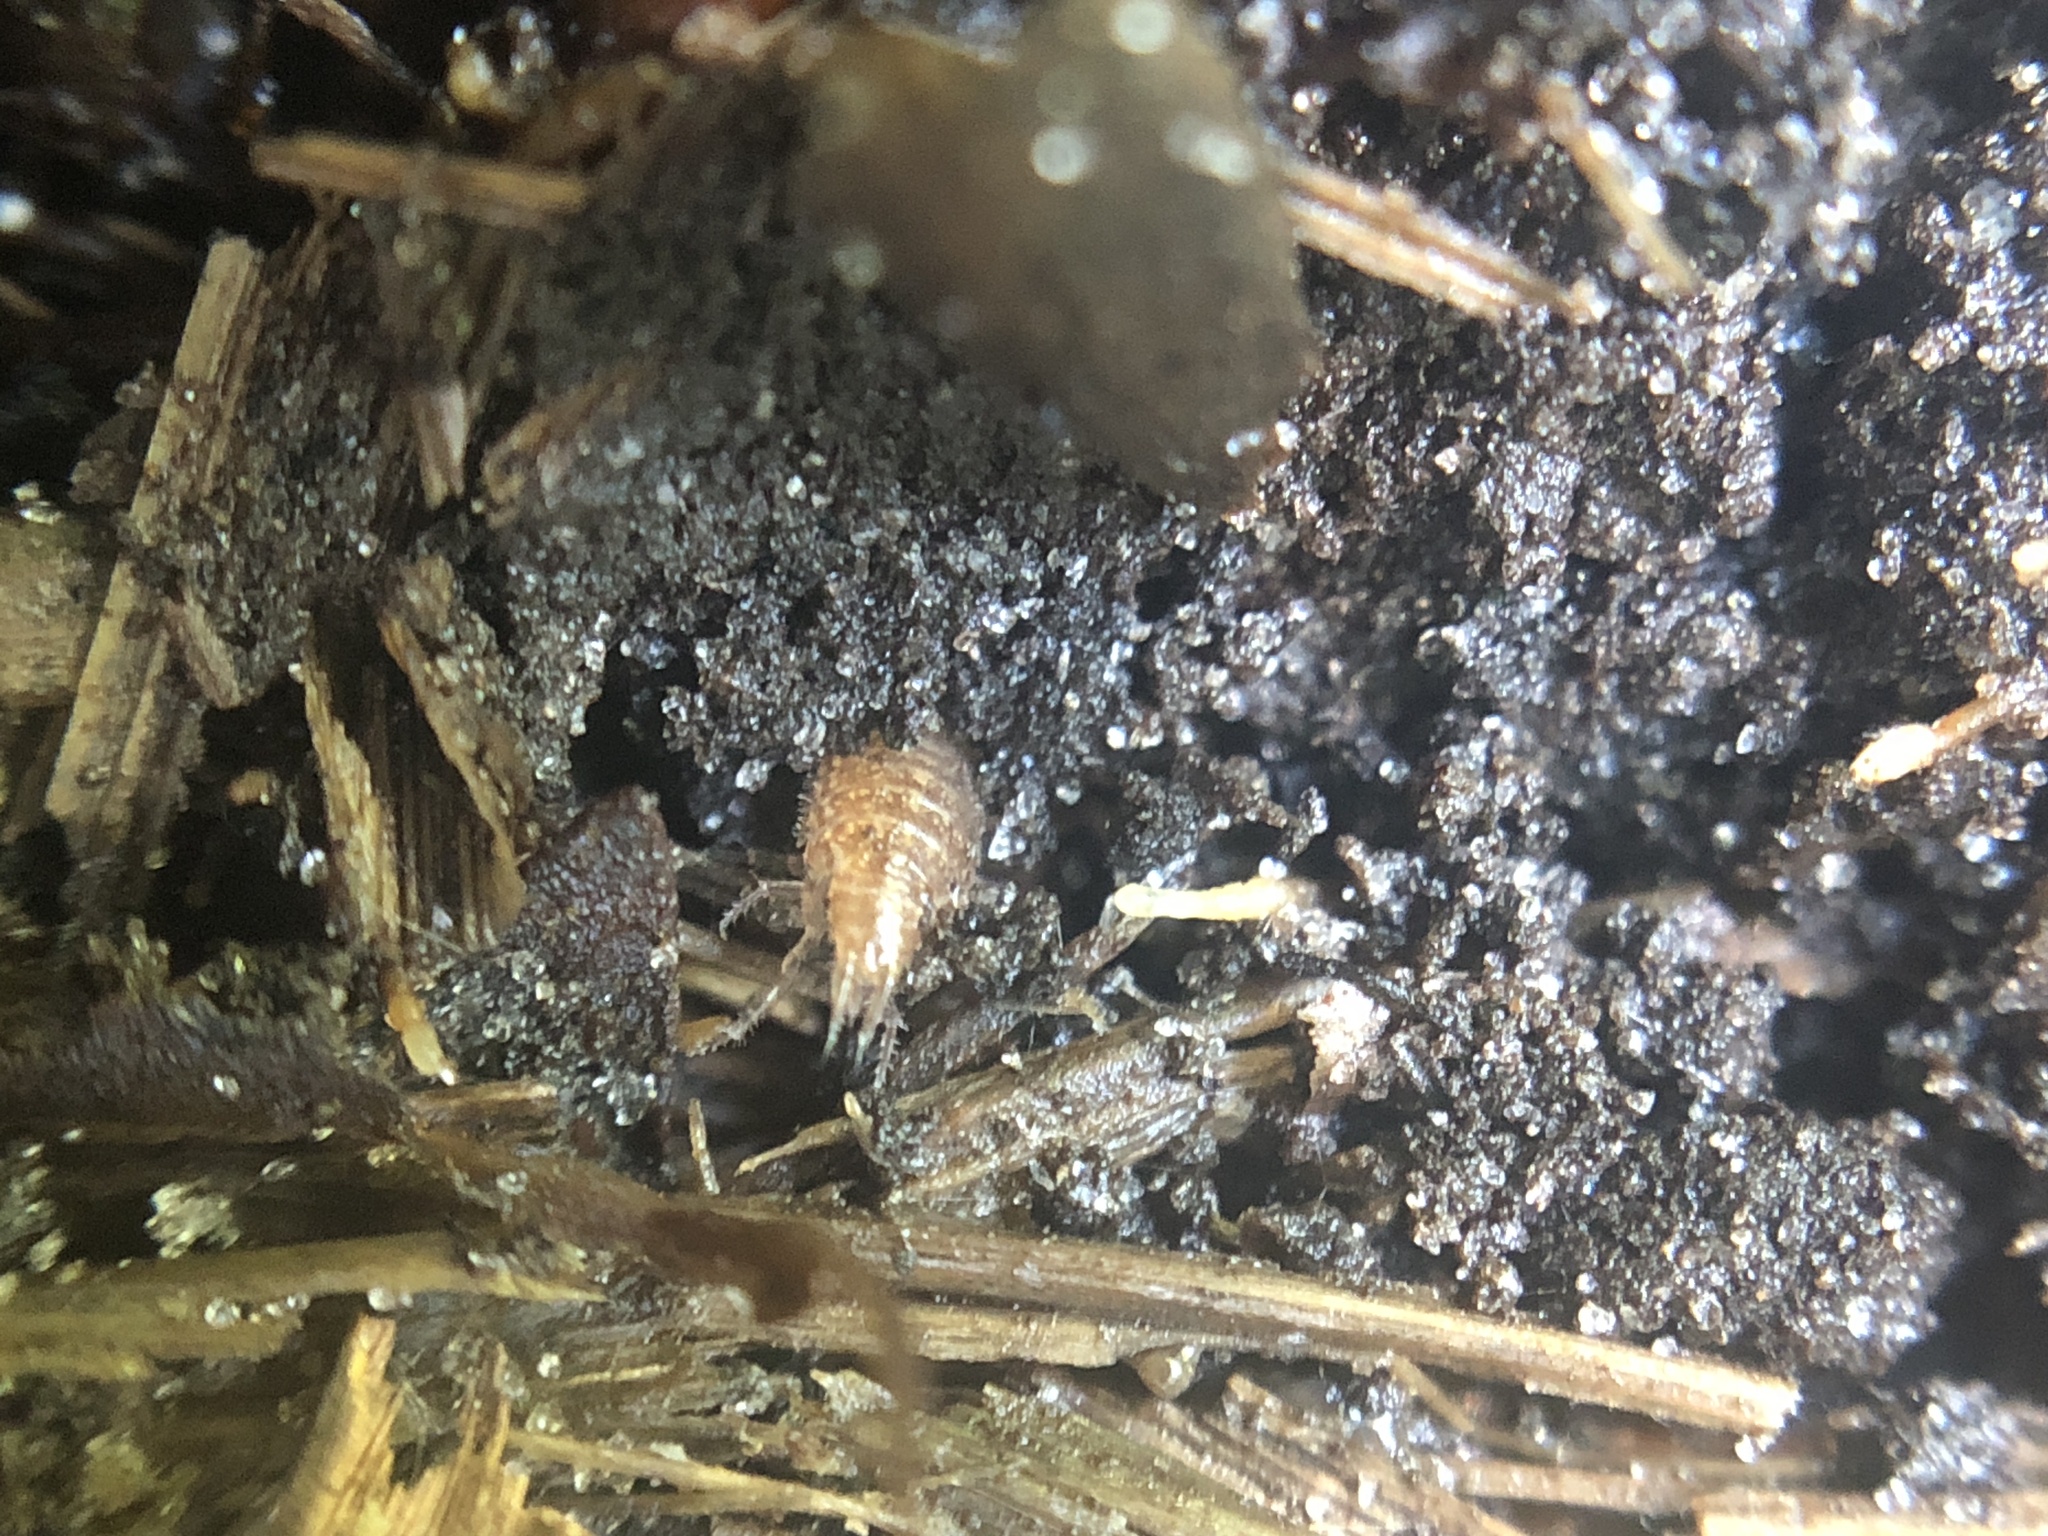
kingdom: Animalia
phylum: Arthropoda
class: Malacostraca
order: Isopoda
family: Philosciidae
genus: Atlantoscia
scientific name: Atlantoscia floridana
